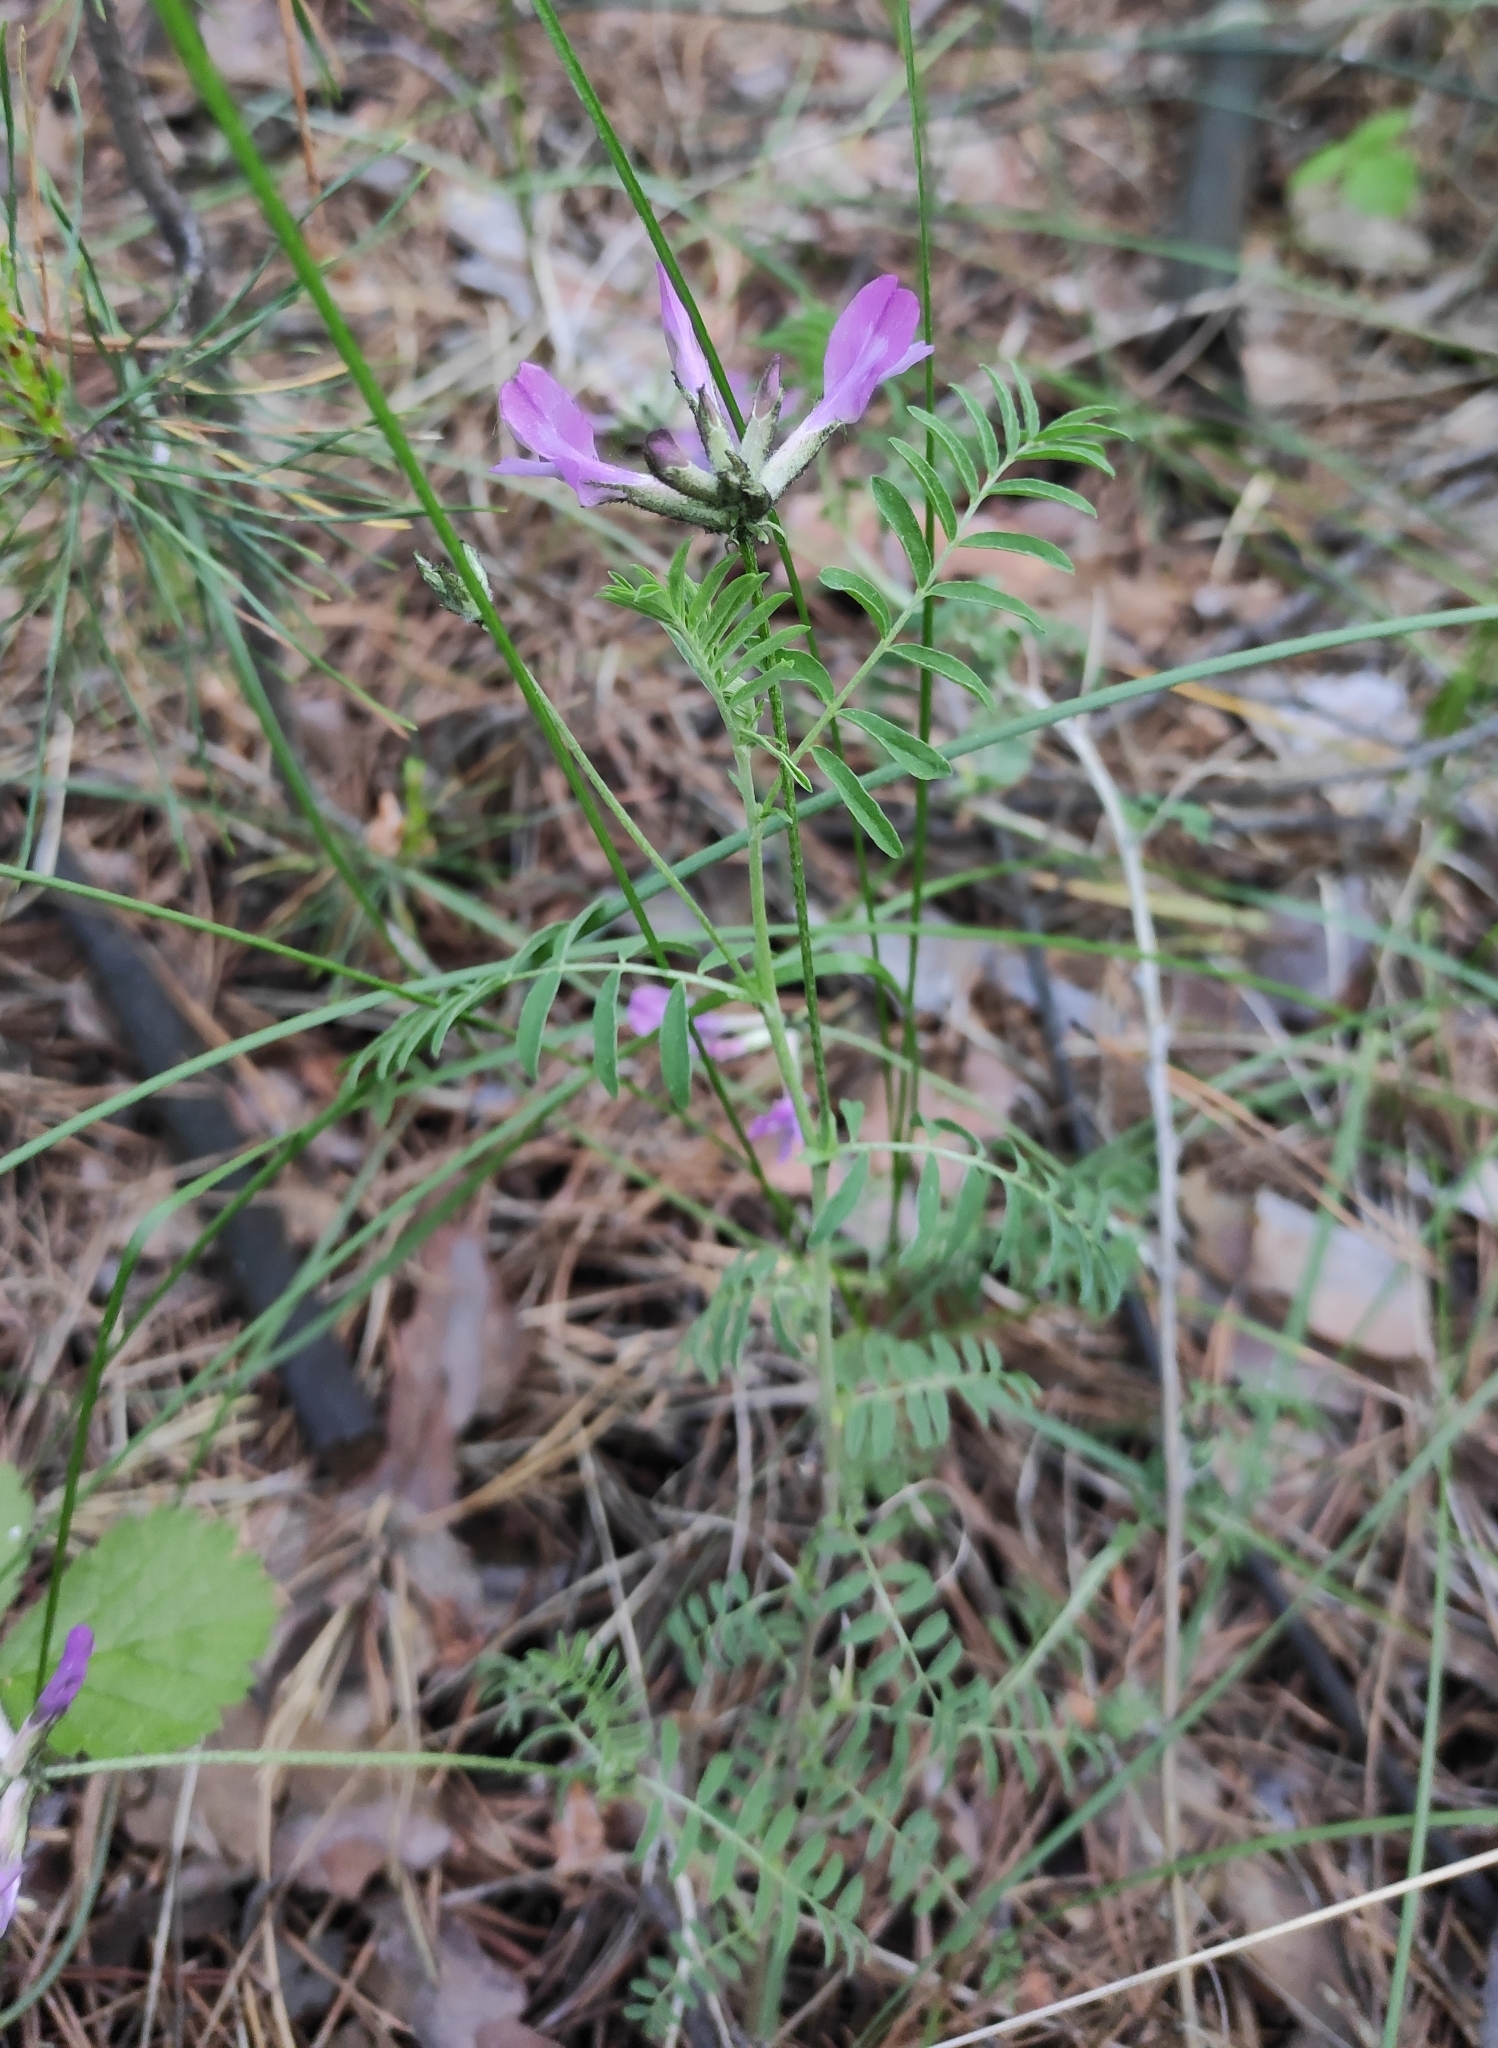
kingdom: Plantae
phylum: Tracheophyta
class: Magnoliopsida
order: Fabales
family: Fabaceae
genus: Astragalus
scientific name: Astragalus syriacus
